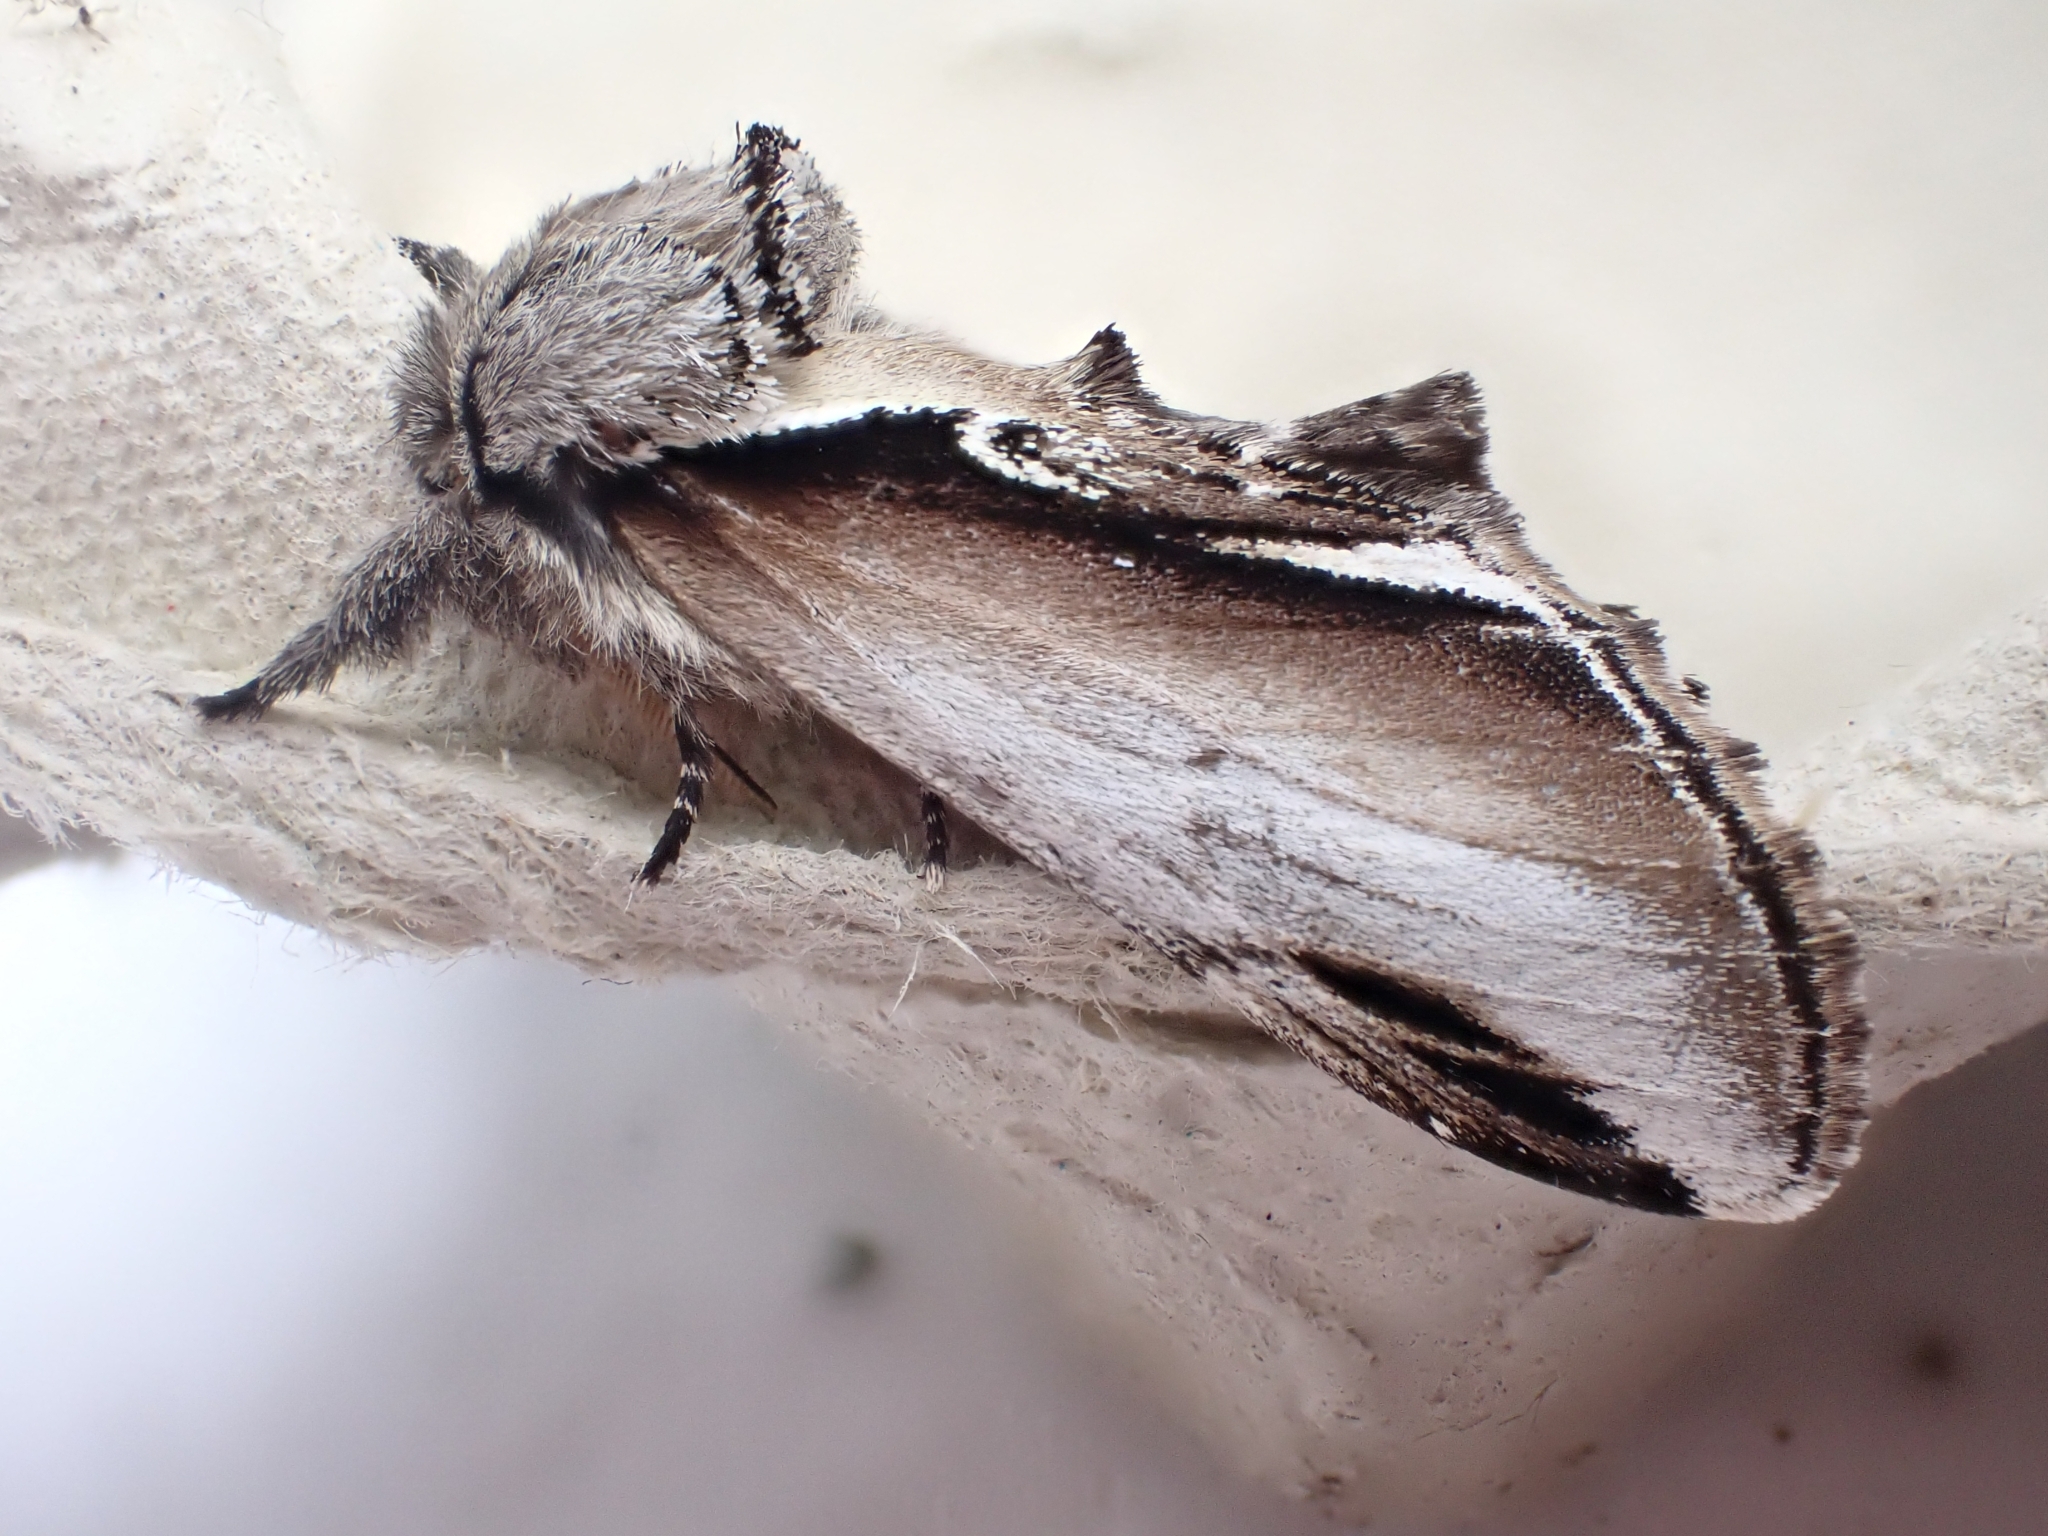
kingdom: Animalia
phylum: Arthropoda
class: Insecta
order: Lepidoptera
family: Notodontidae
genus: Pheosia
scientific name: Pheosia gnoma
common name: Lesser swallow prominent
